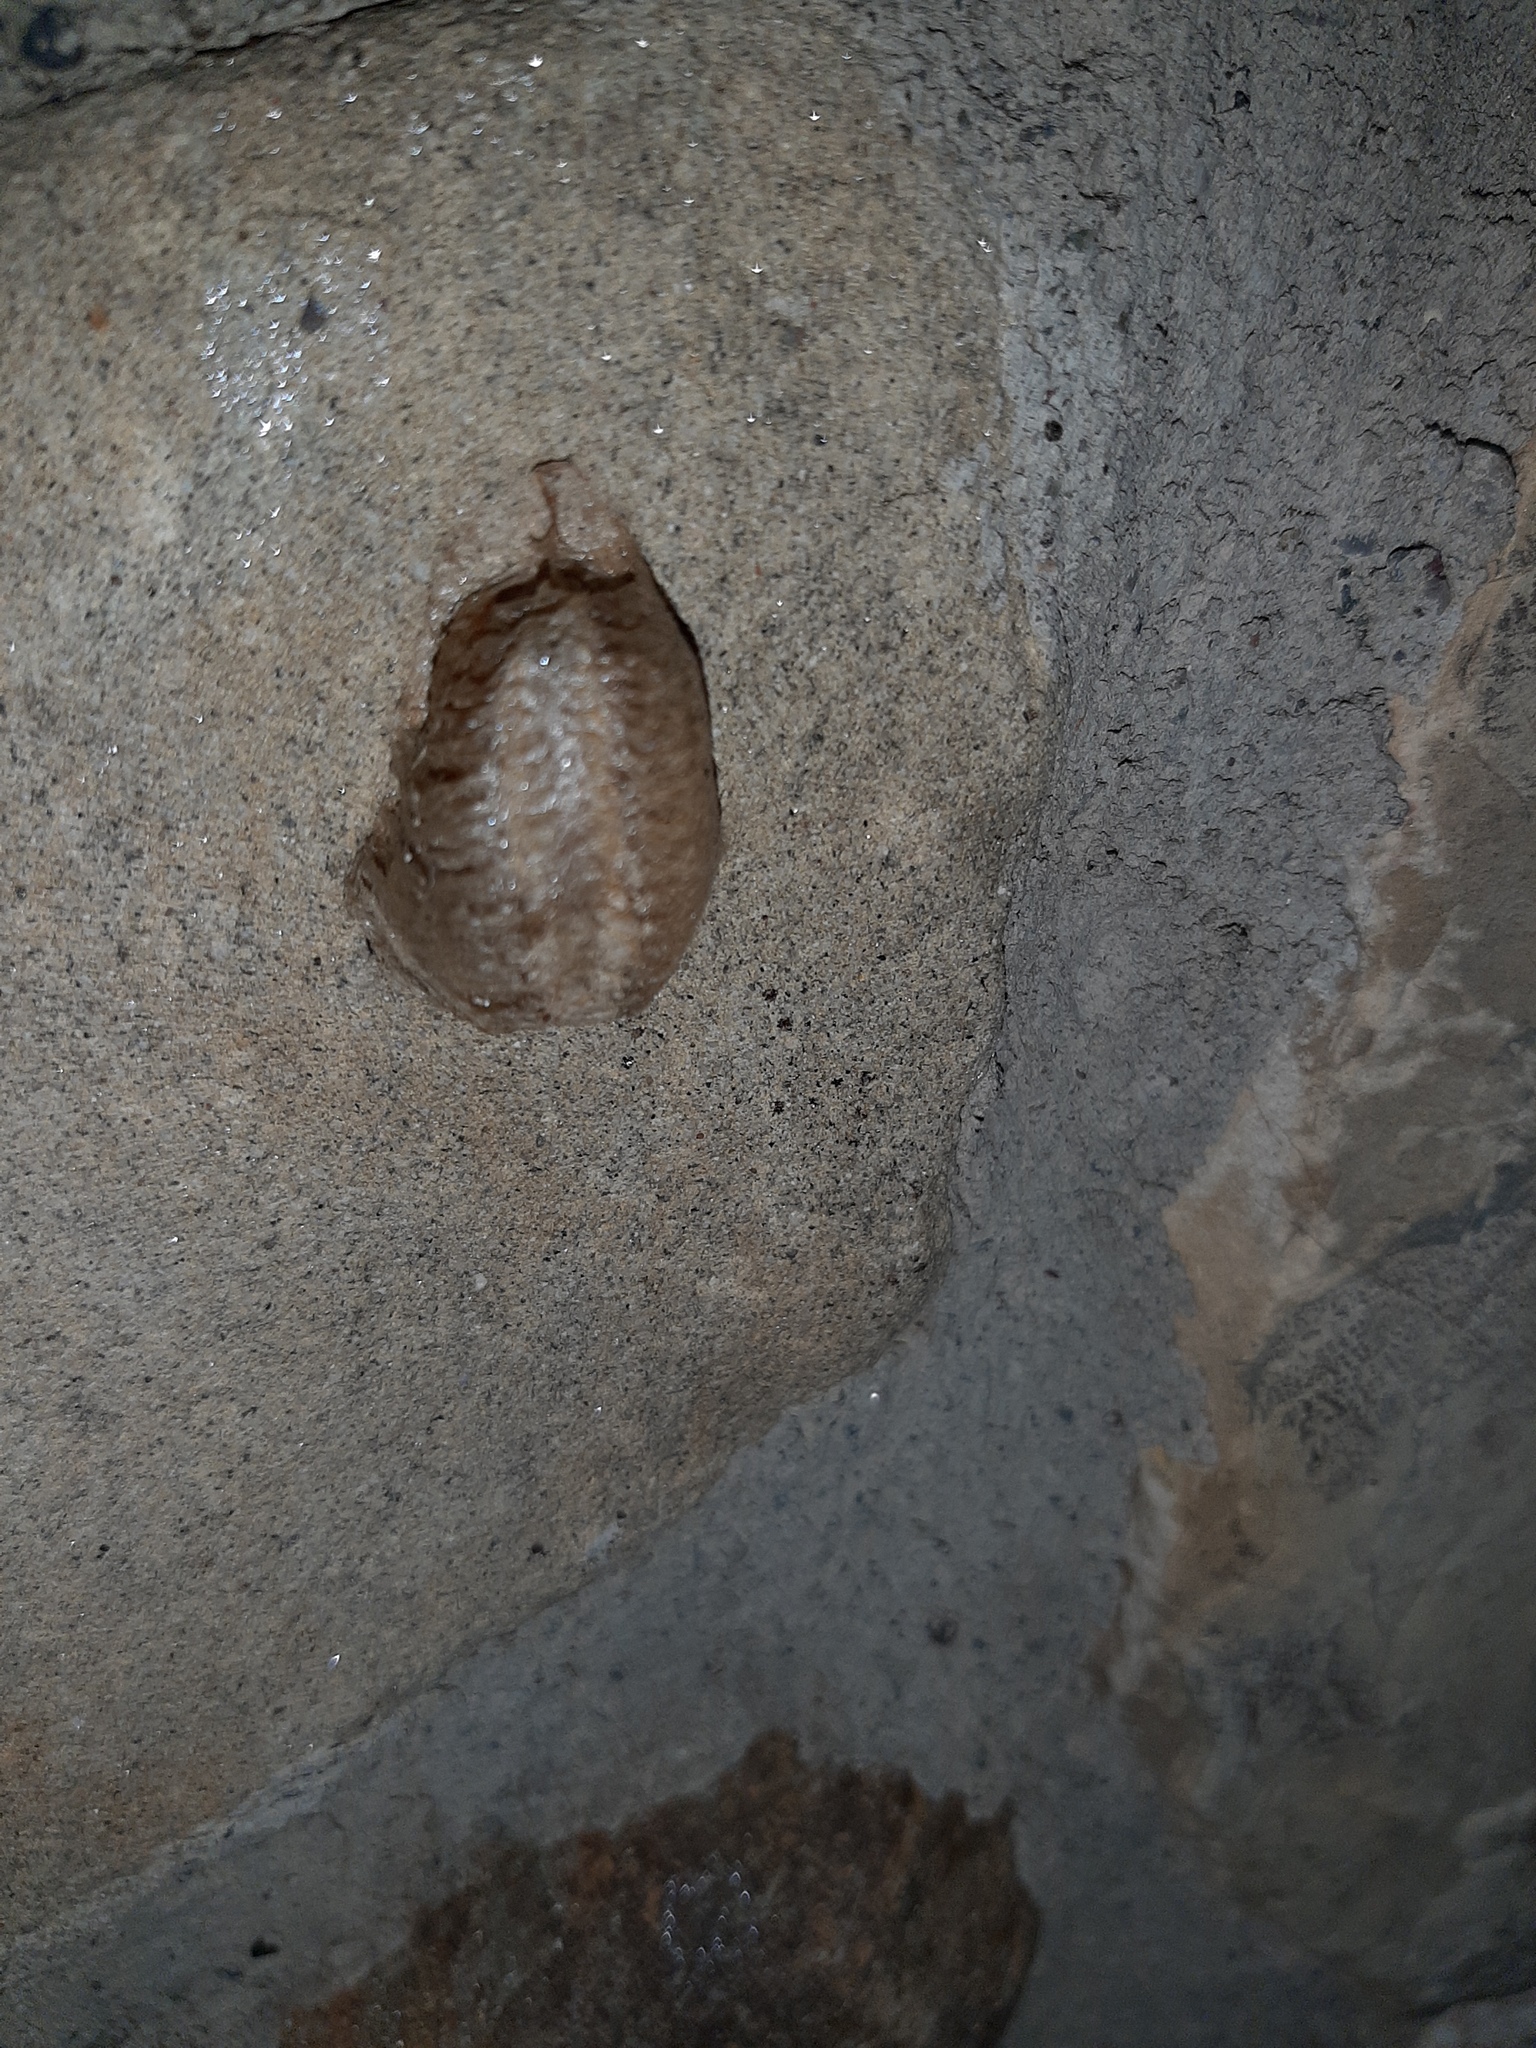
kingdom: Animalia
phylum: Arthropoda
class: Insecta
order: Mantodea
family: Mantidae
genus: Mantis
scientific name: Mantis religiosa
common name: Praying mantis
